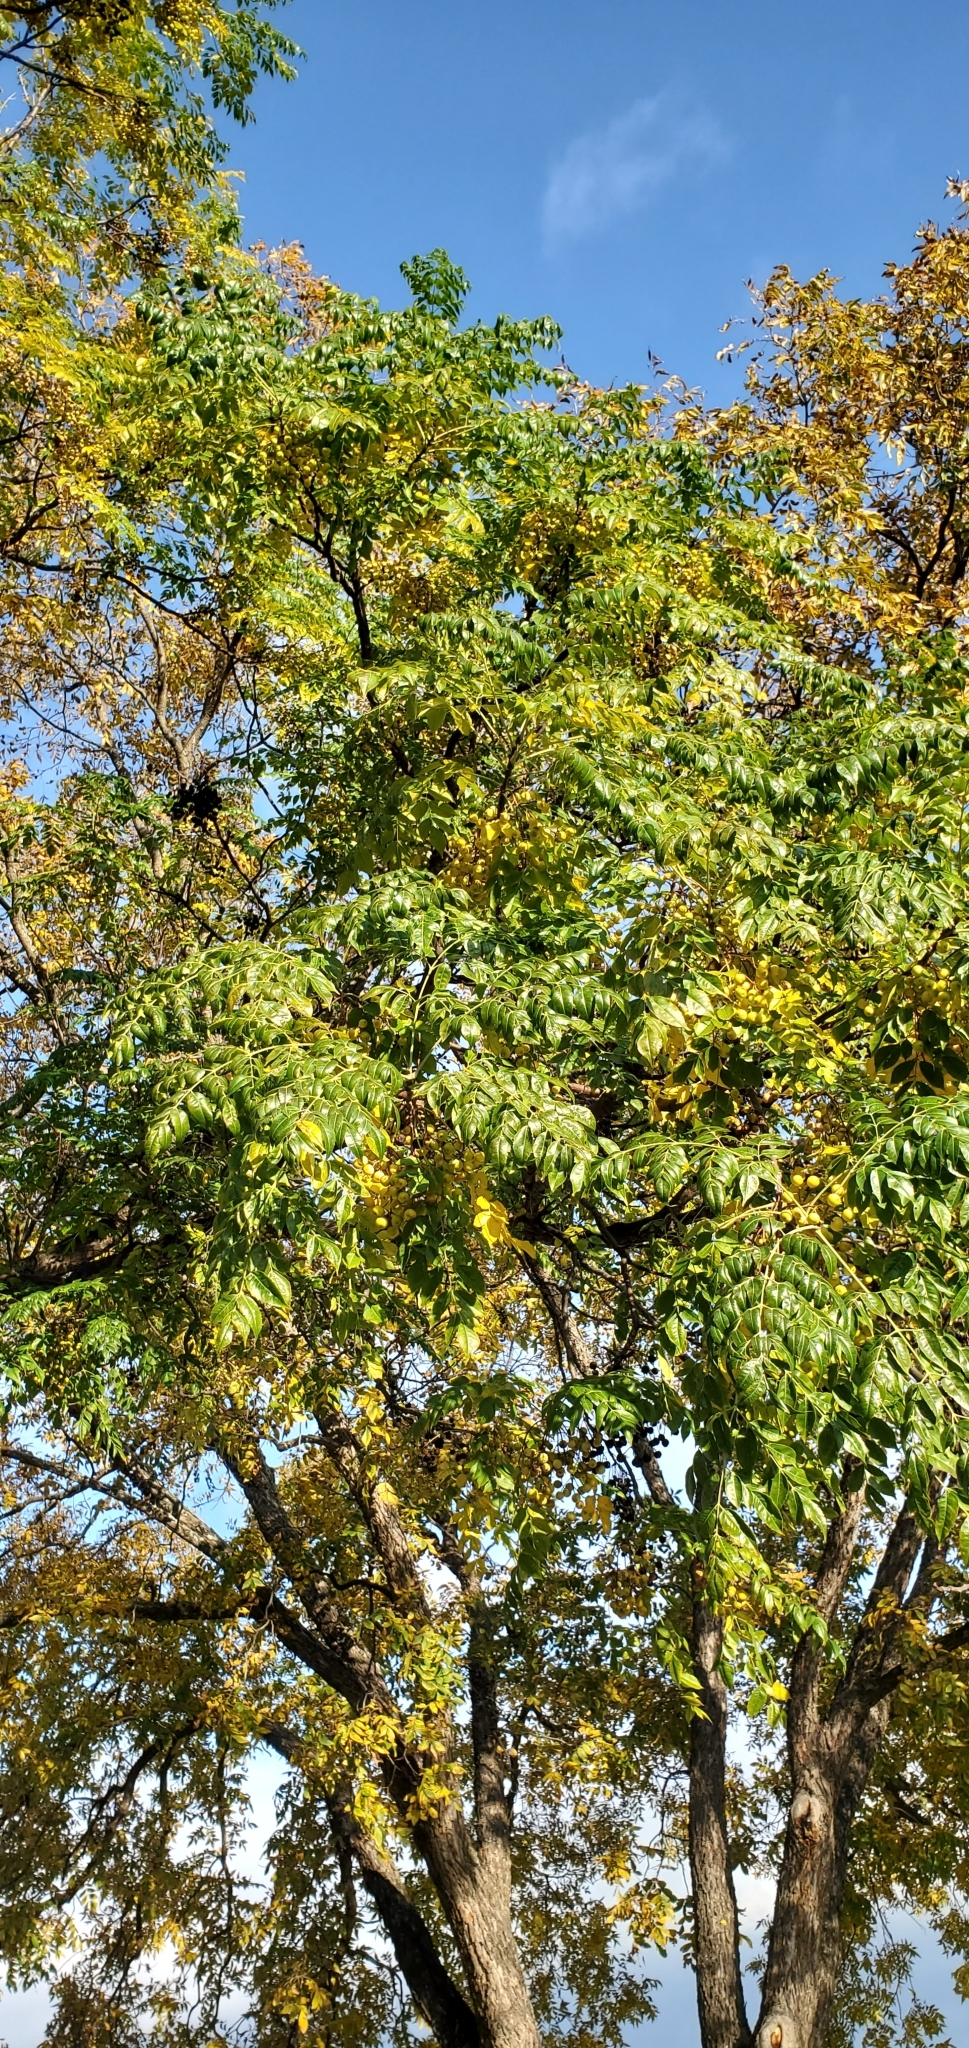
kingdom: Plantae
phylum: Tracheophyta
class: Magnoliopsida
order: Sapindales
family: Meliaceae
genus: Melia
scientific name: Melia azedarach
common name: Chinaberrytree
